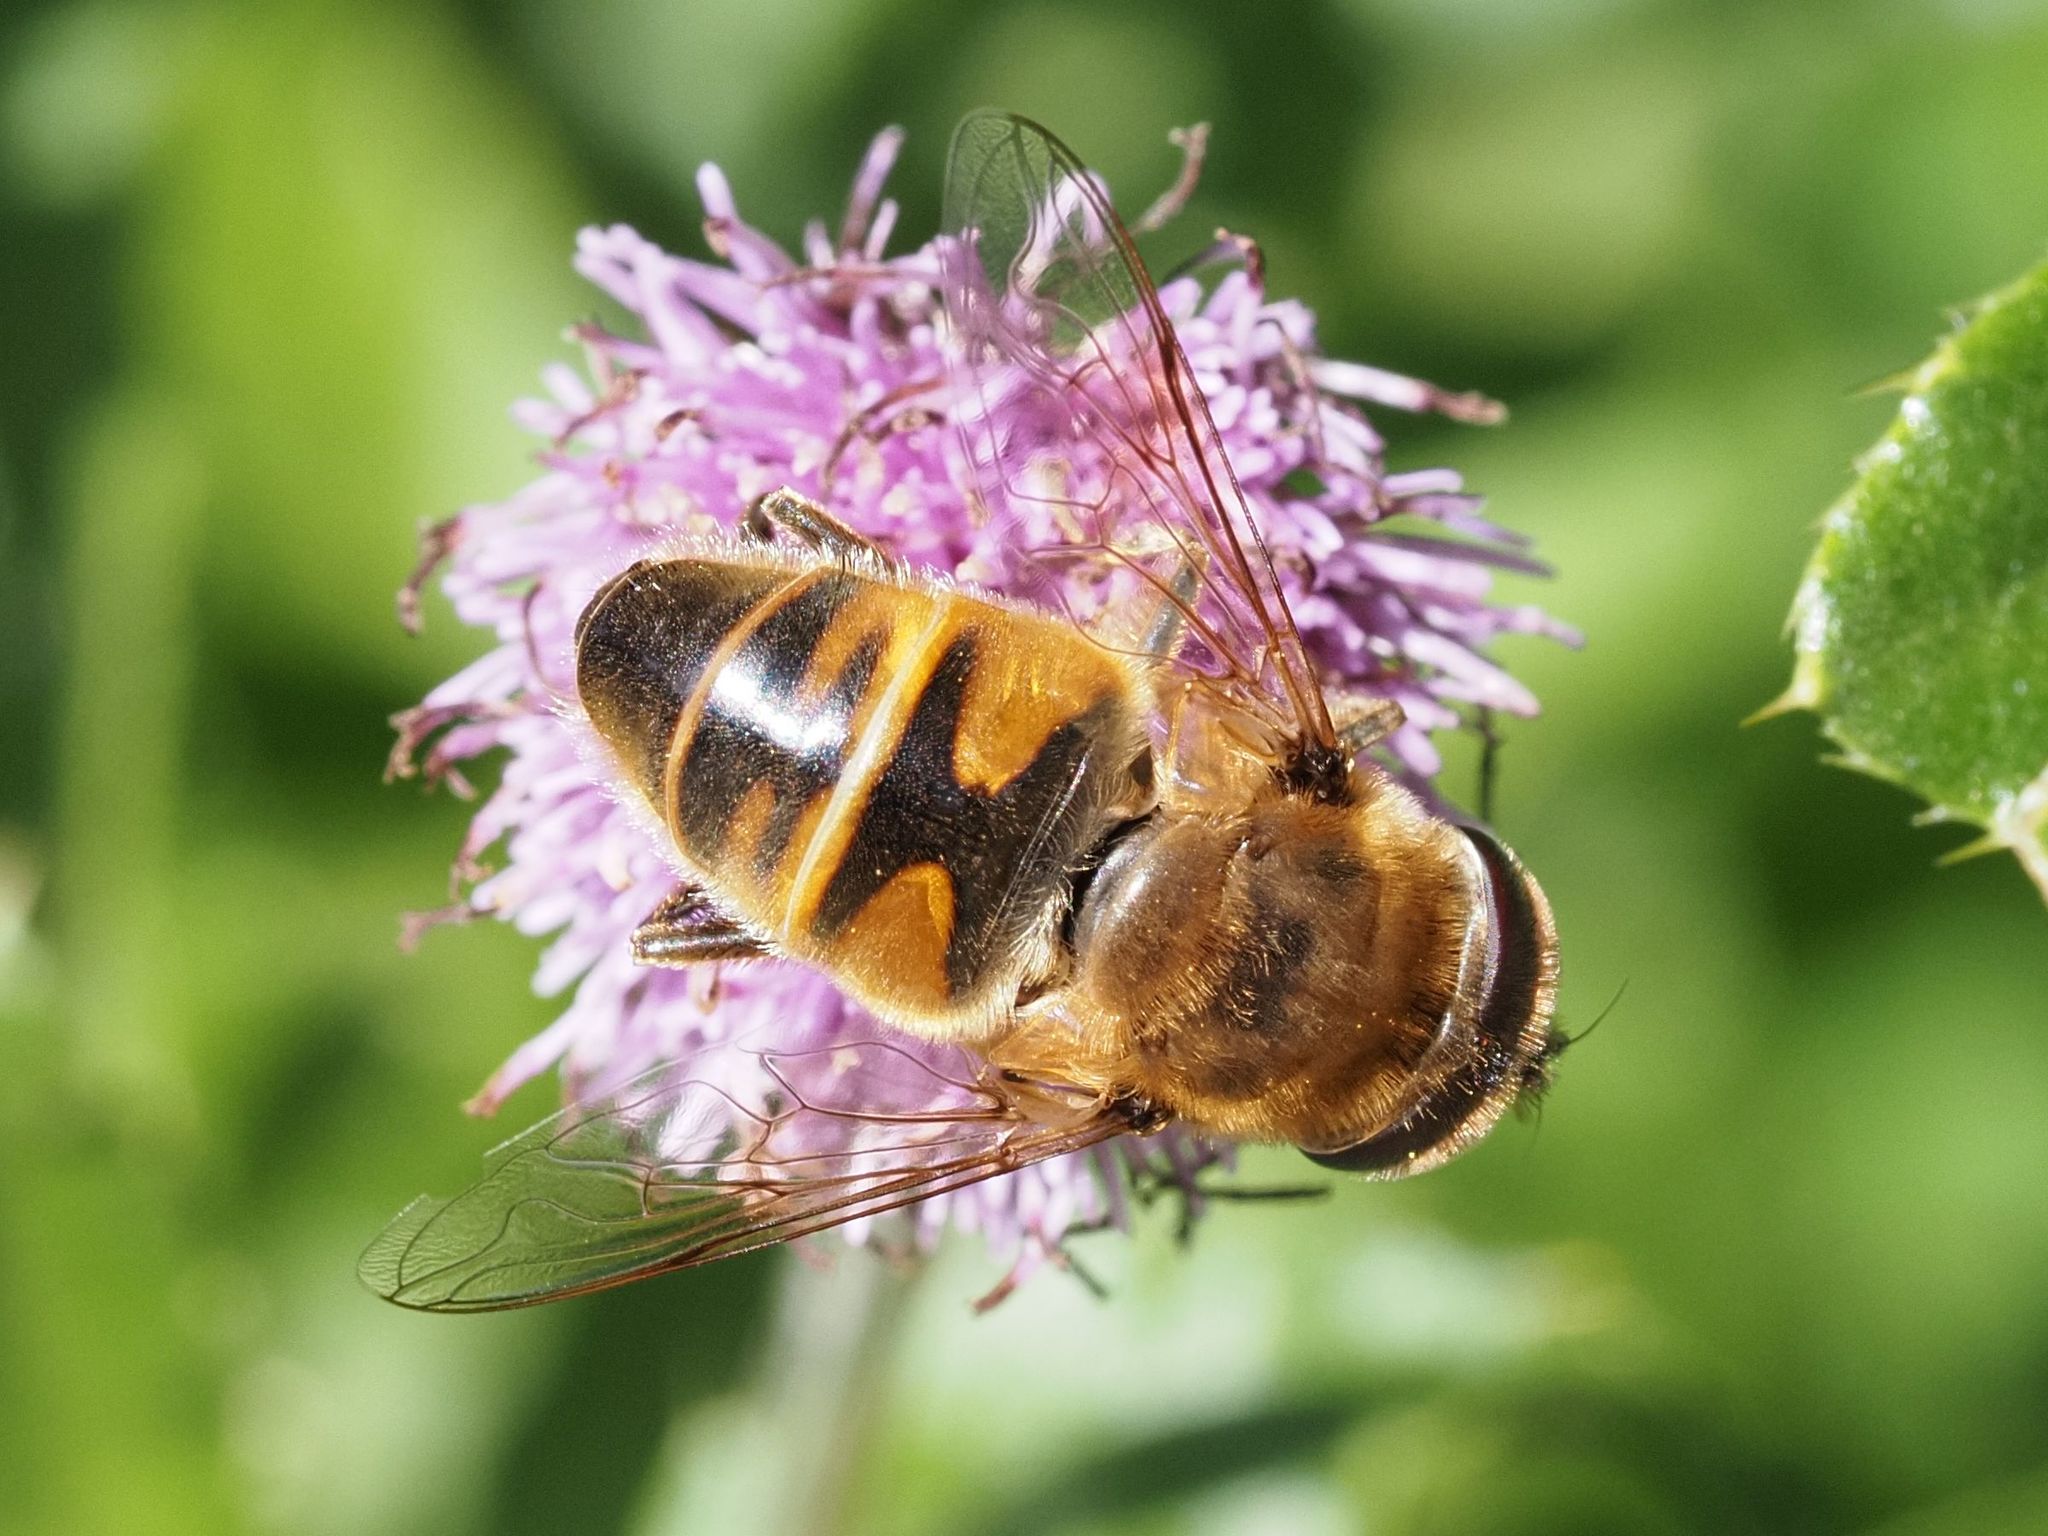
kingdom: Animalia
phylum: Arthropoda
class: Insecta
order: Diptera
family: Syrphidae
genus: Eristalis
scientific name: Eristalis tenax
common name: Drone fly
